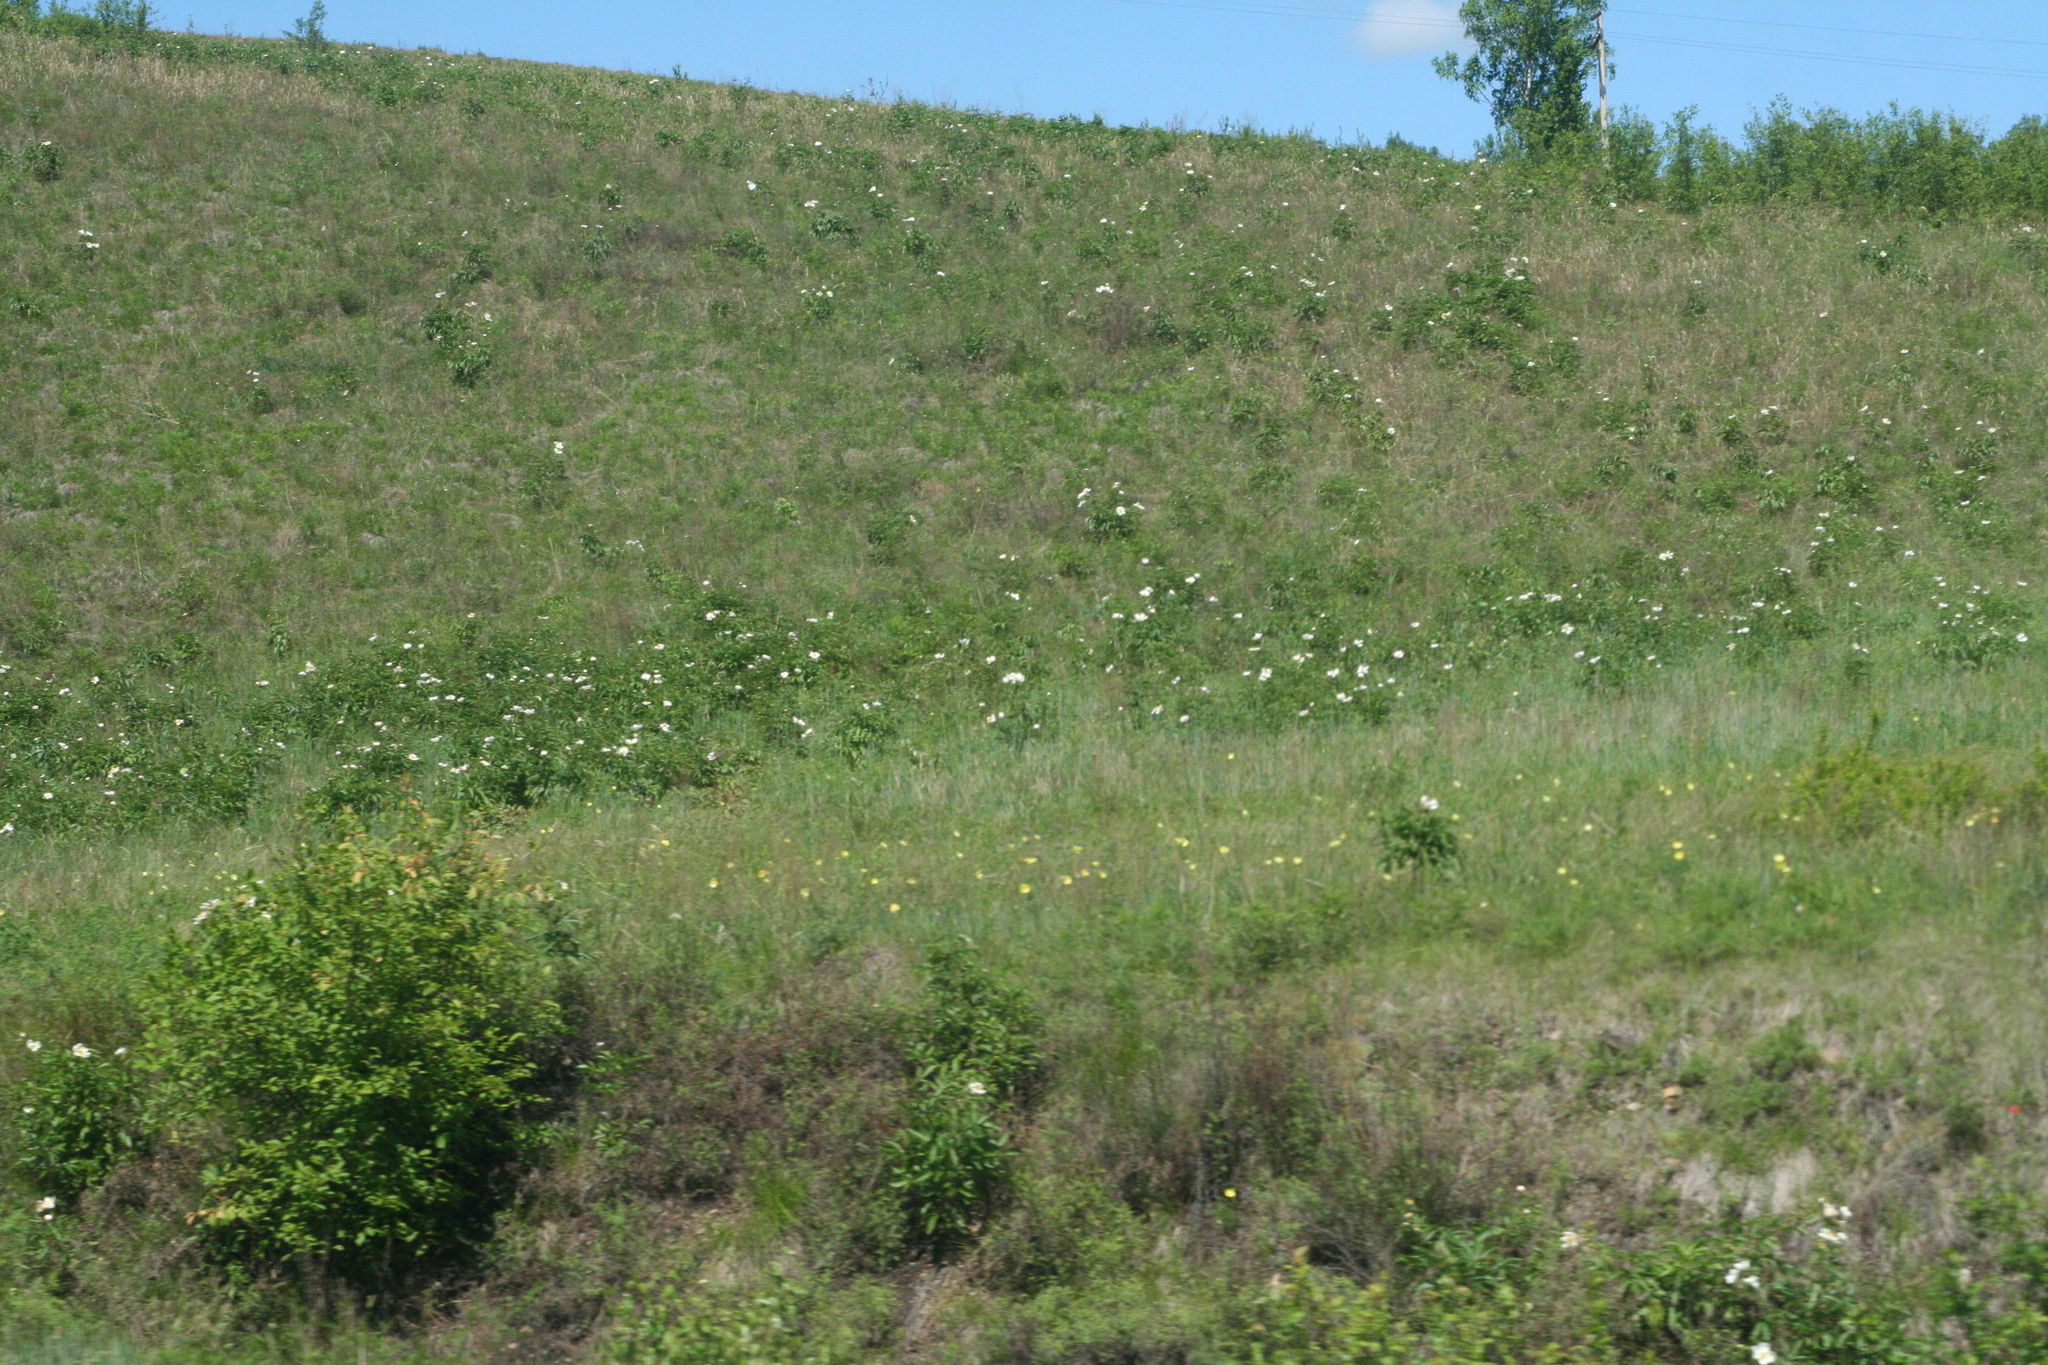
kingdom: Plantae
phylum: Tracheophyta
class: Magnoliopsida
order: Saxifragales
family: Paeoniaceae
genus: Paeonia
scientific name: Paeonia lactiflora
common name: Chinese peony
